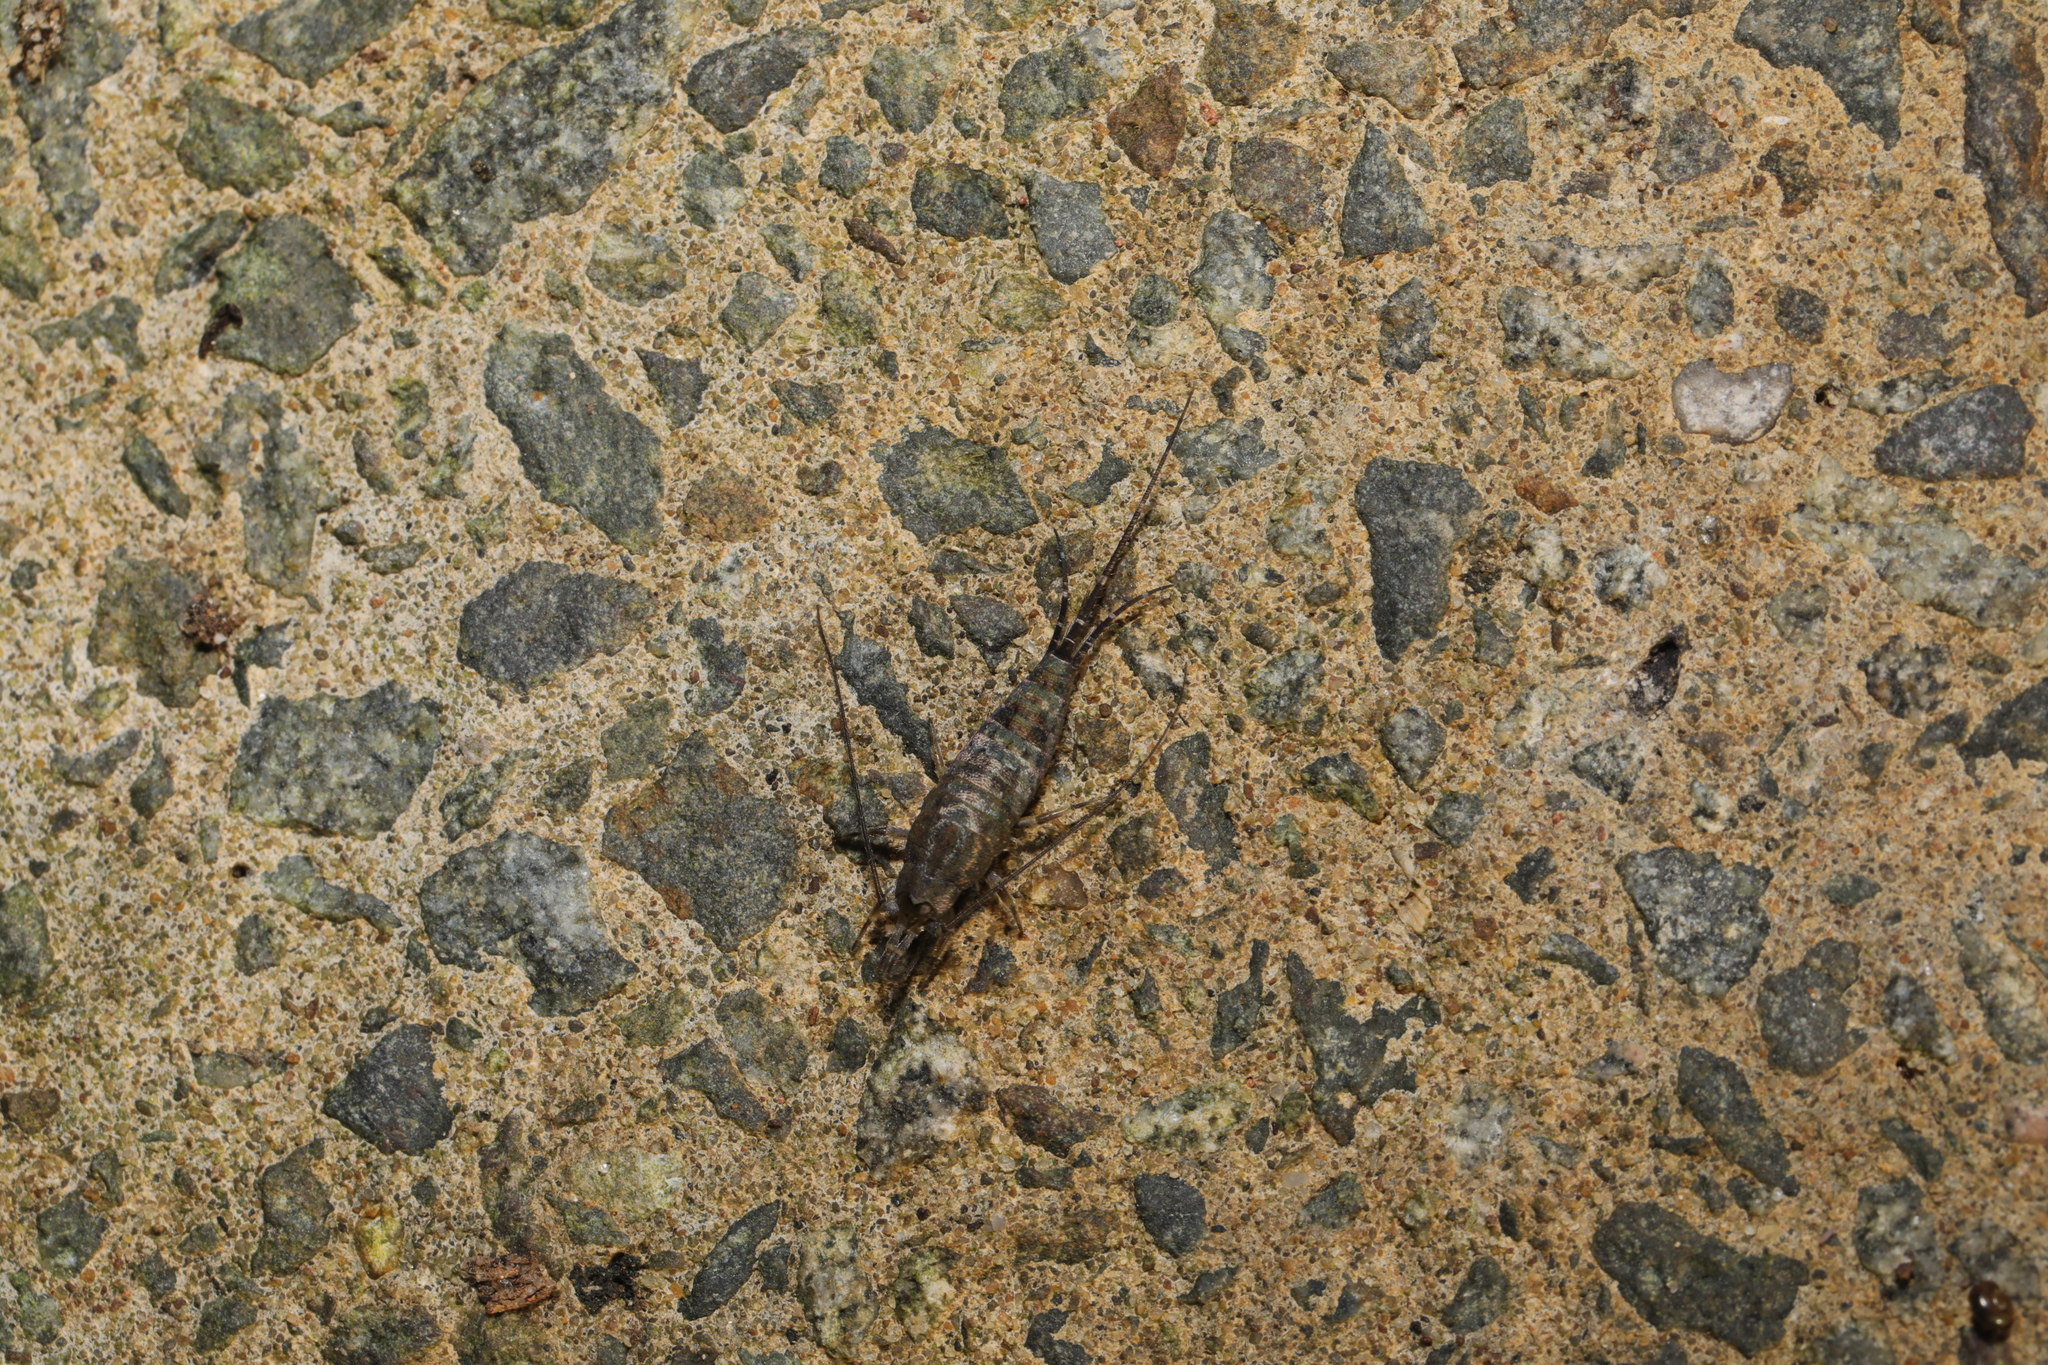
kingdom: Animalia
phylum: Arthropoda
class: Insecta
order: Archaeognatha
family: Machilidae
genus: Petrobius
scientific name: Petrobius maritimus
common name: Sea bristletail
